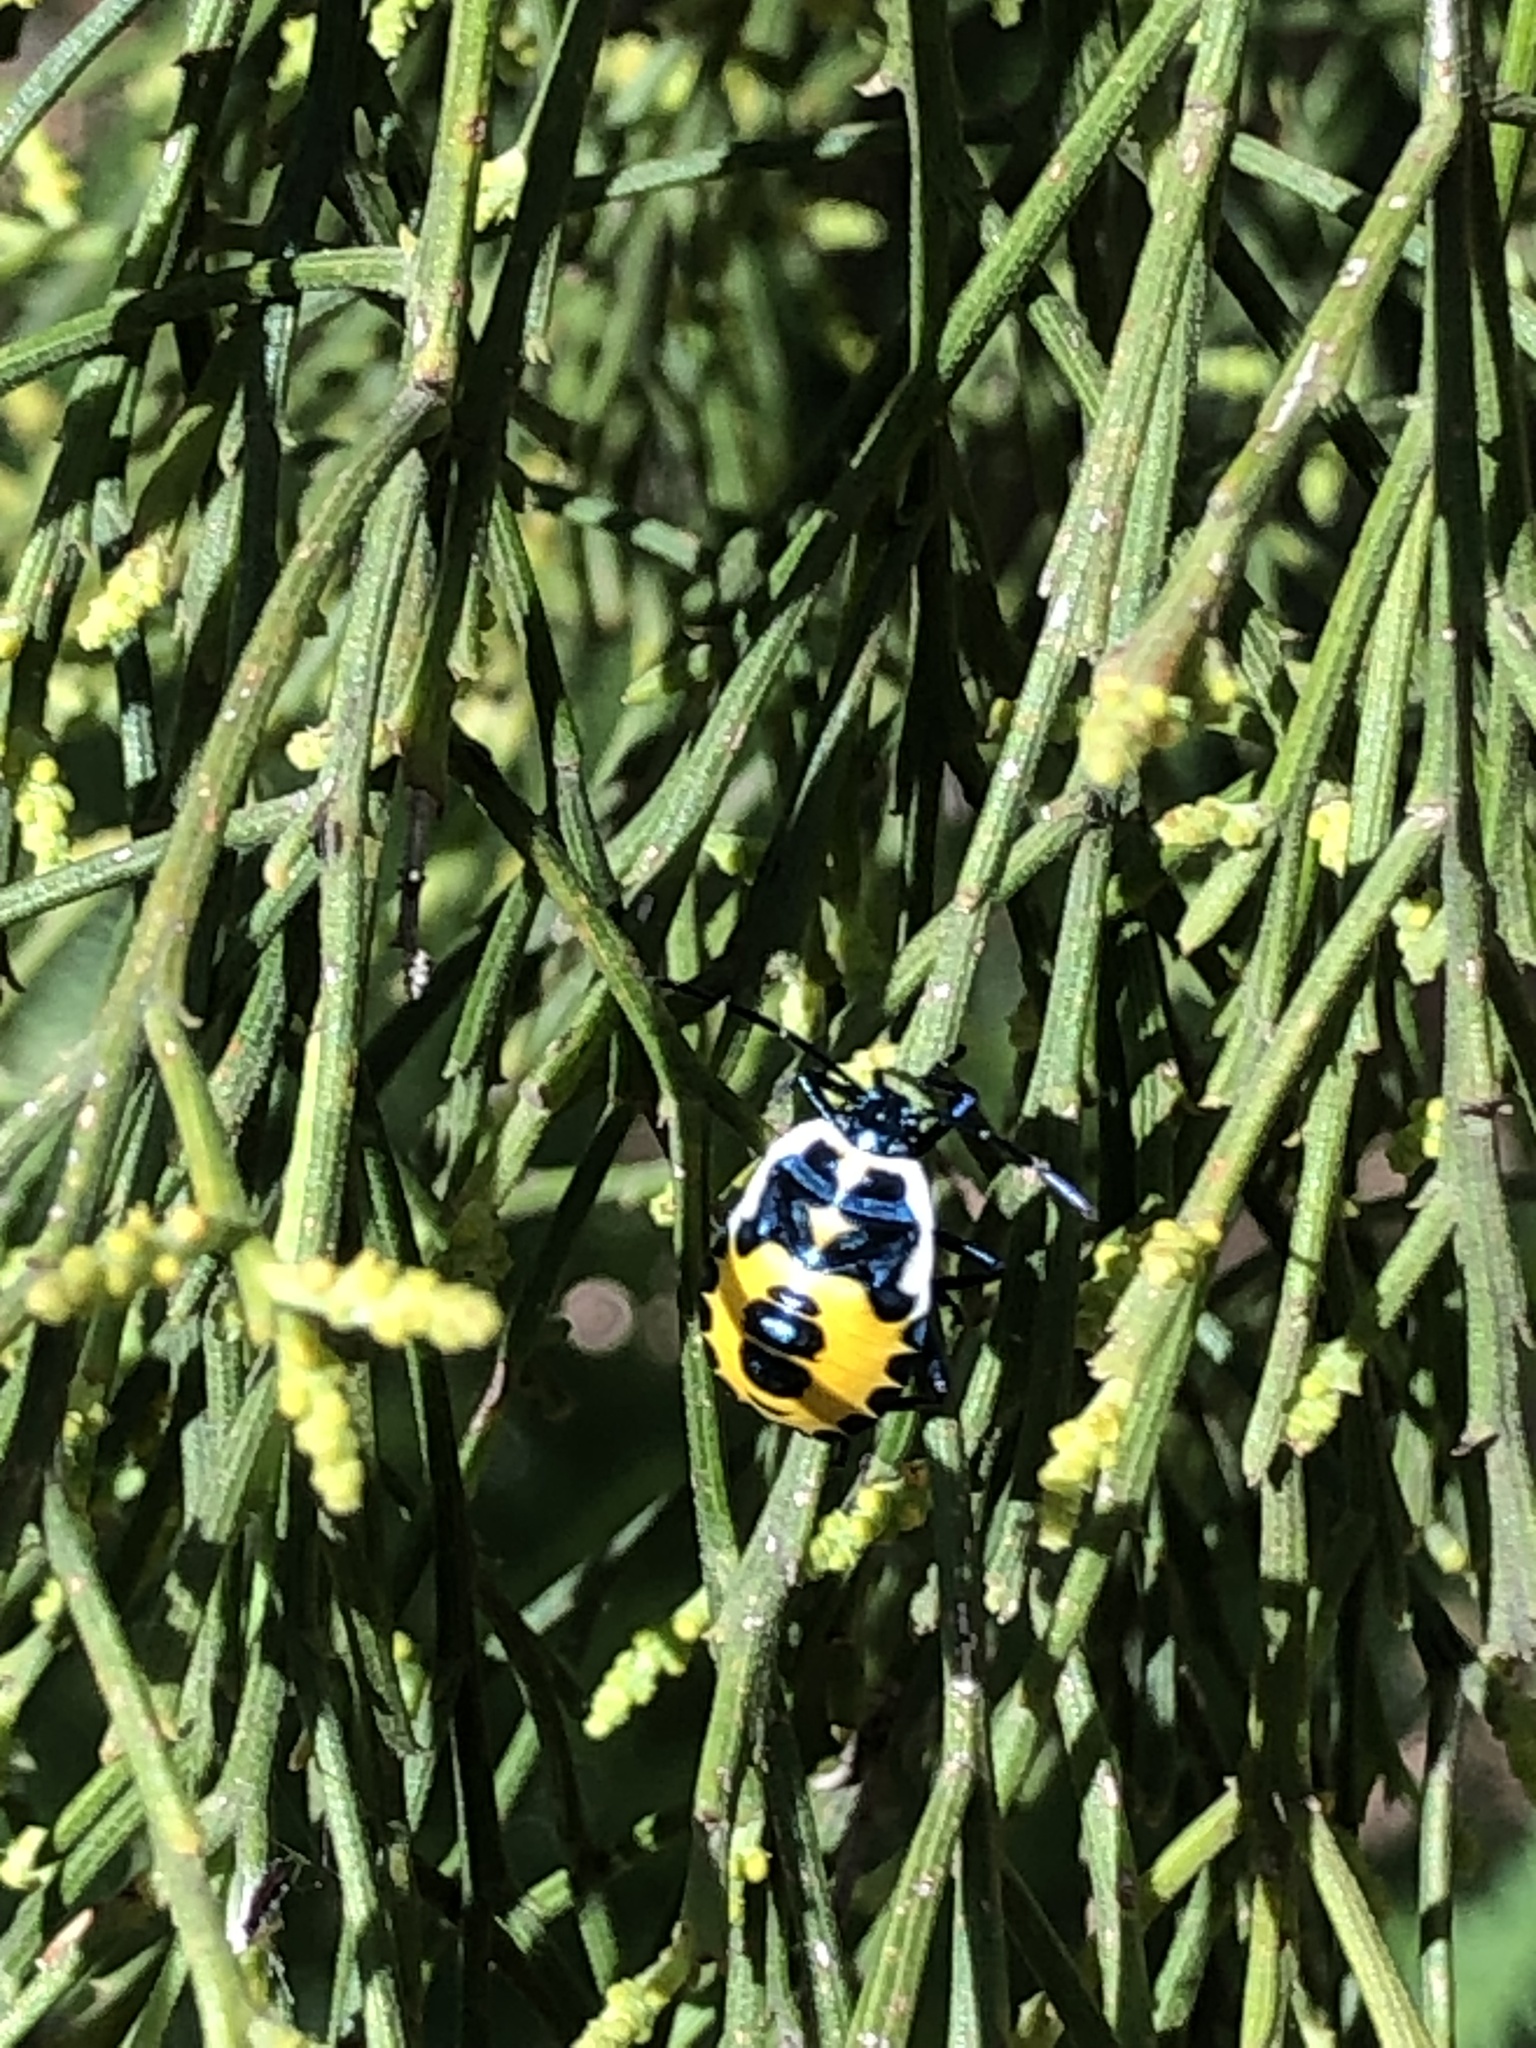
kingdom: Animalia
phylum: Arthropoda
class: Insecta
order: Hemiptera
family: Pentatomidae
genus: Commius
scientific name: Commius
